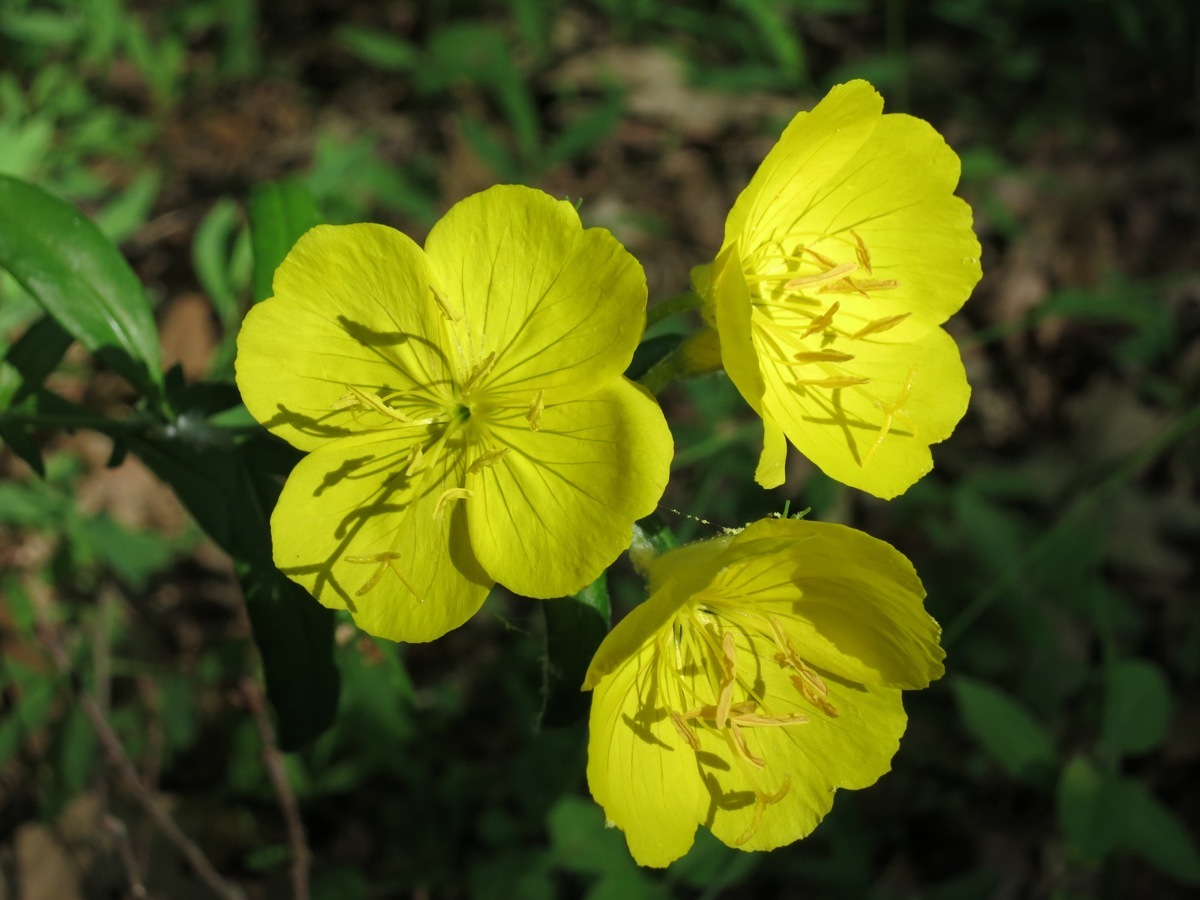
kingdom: Plantae
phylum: Tracheophyta
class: Magnoliopsida
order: Myrtales
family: Onagraceae
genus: Oenothera
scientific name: Oenothera fruticosa
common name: Southern sundrops
